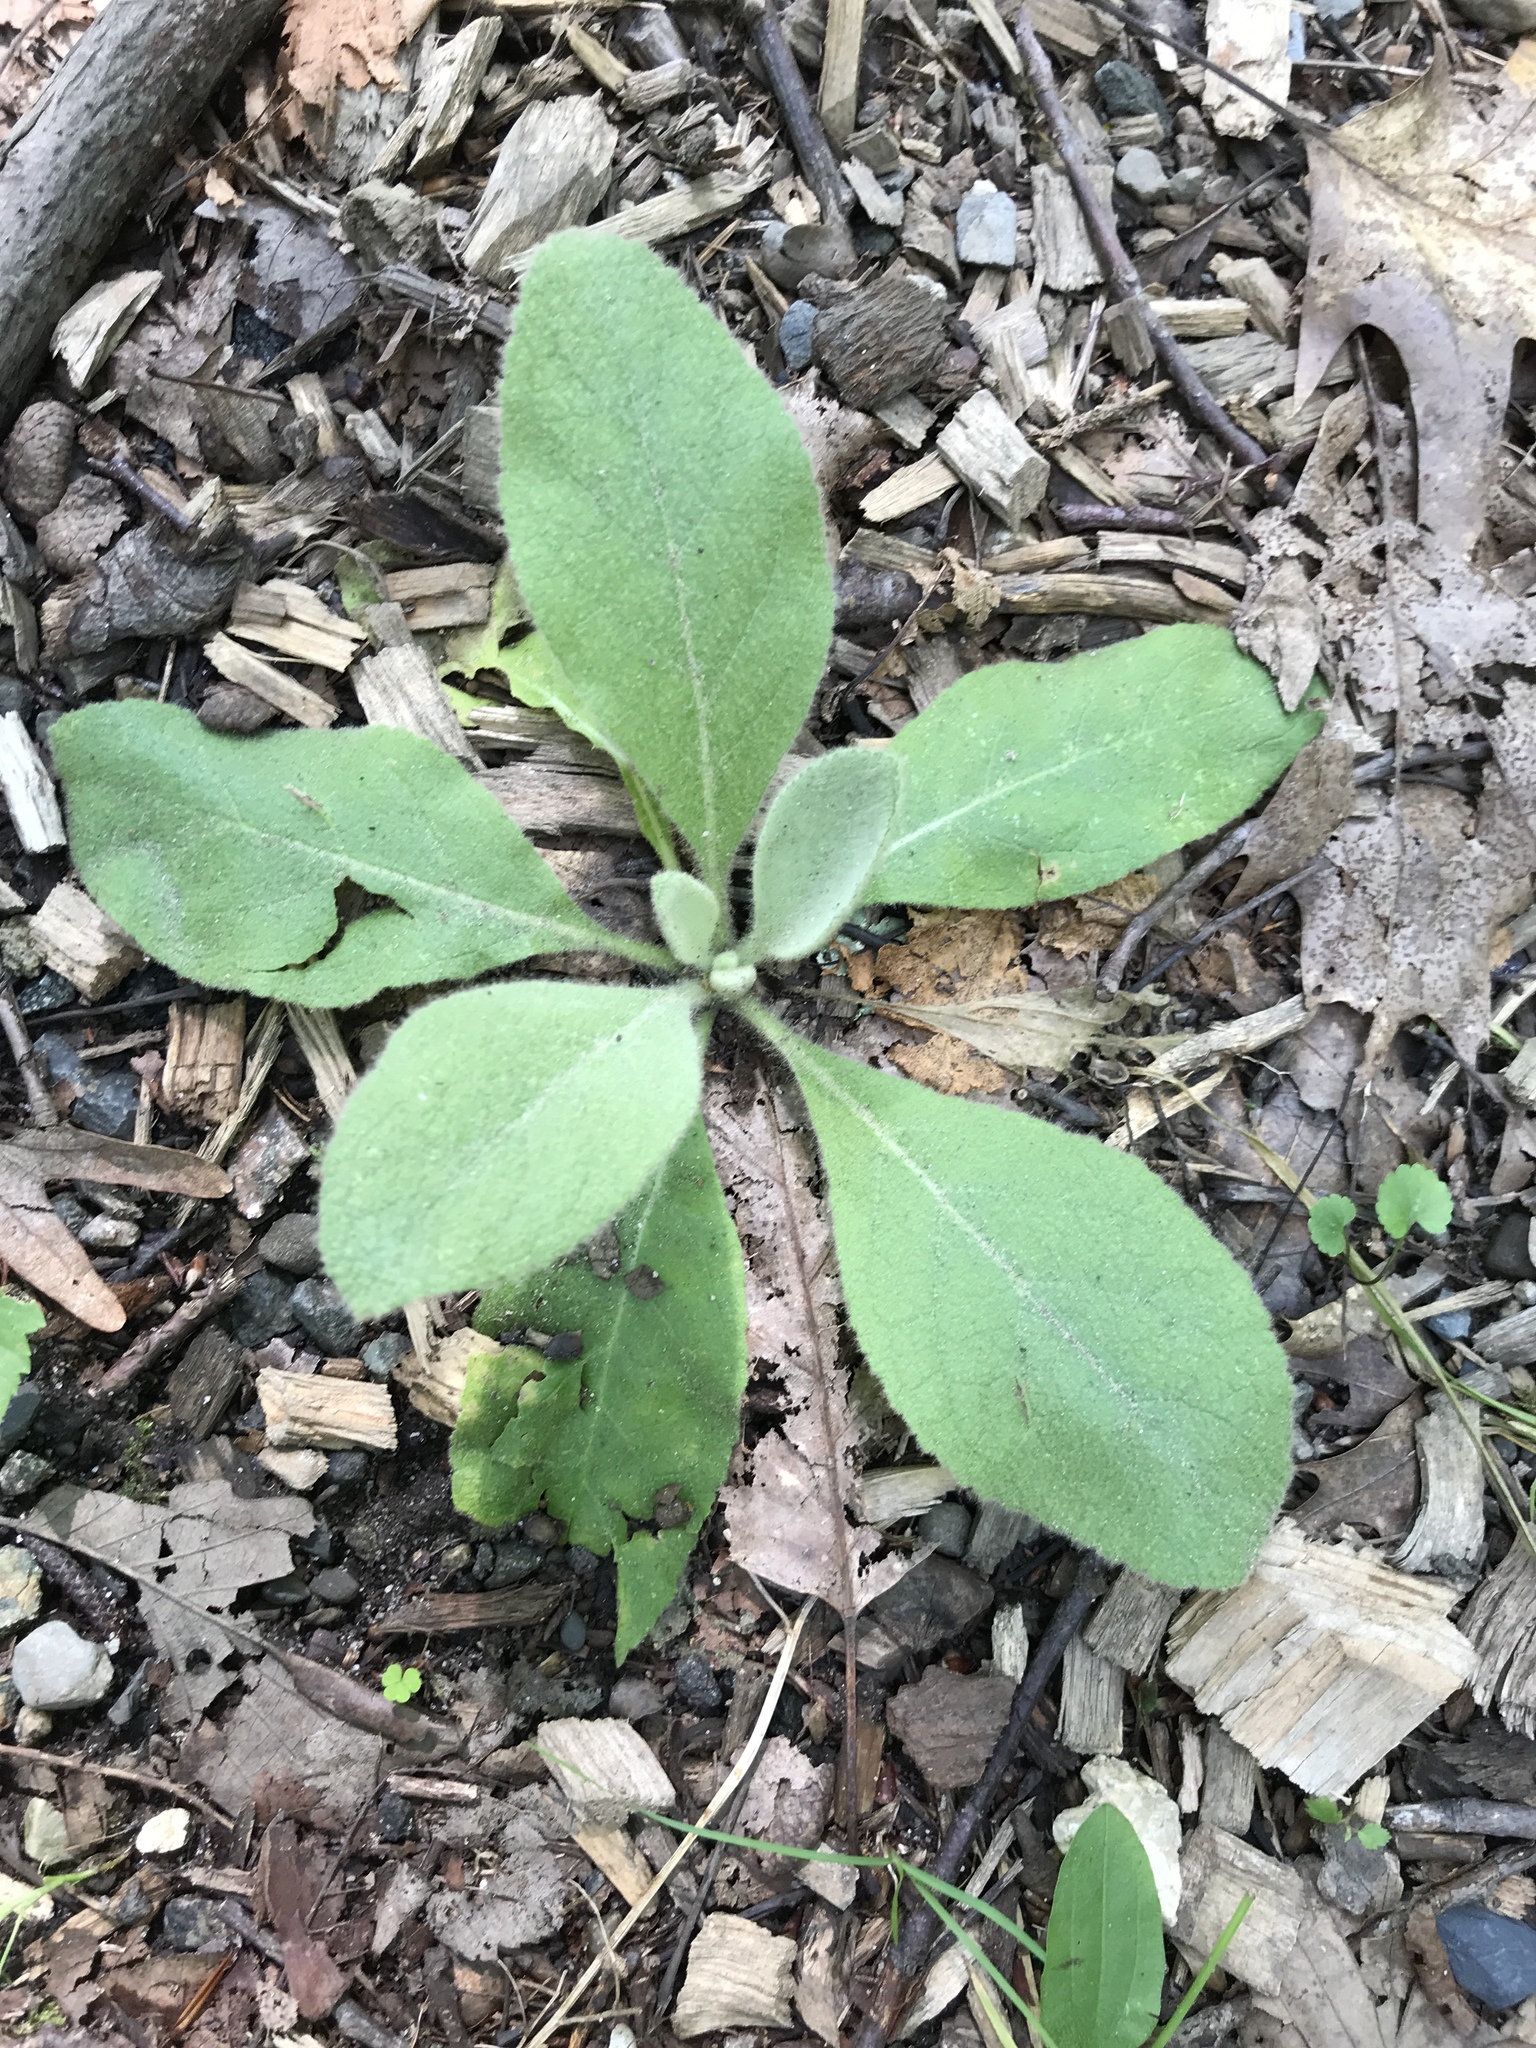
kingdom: Plantae
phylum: Tracheophyta
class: Magnoliopsida
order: Lamiales
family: Scrophulariaceae
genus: Verbascum
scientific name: Verbascum thapsus
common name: Common mullein
